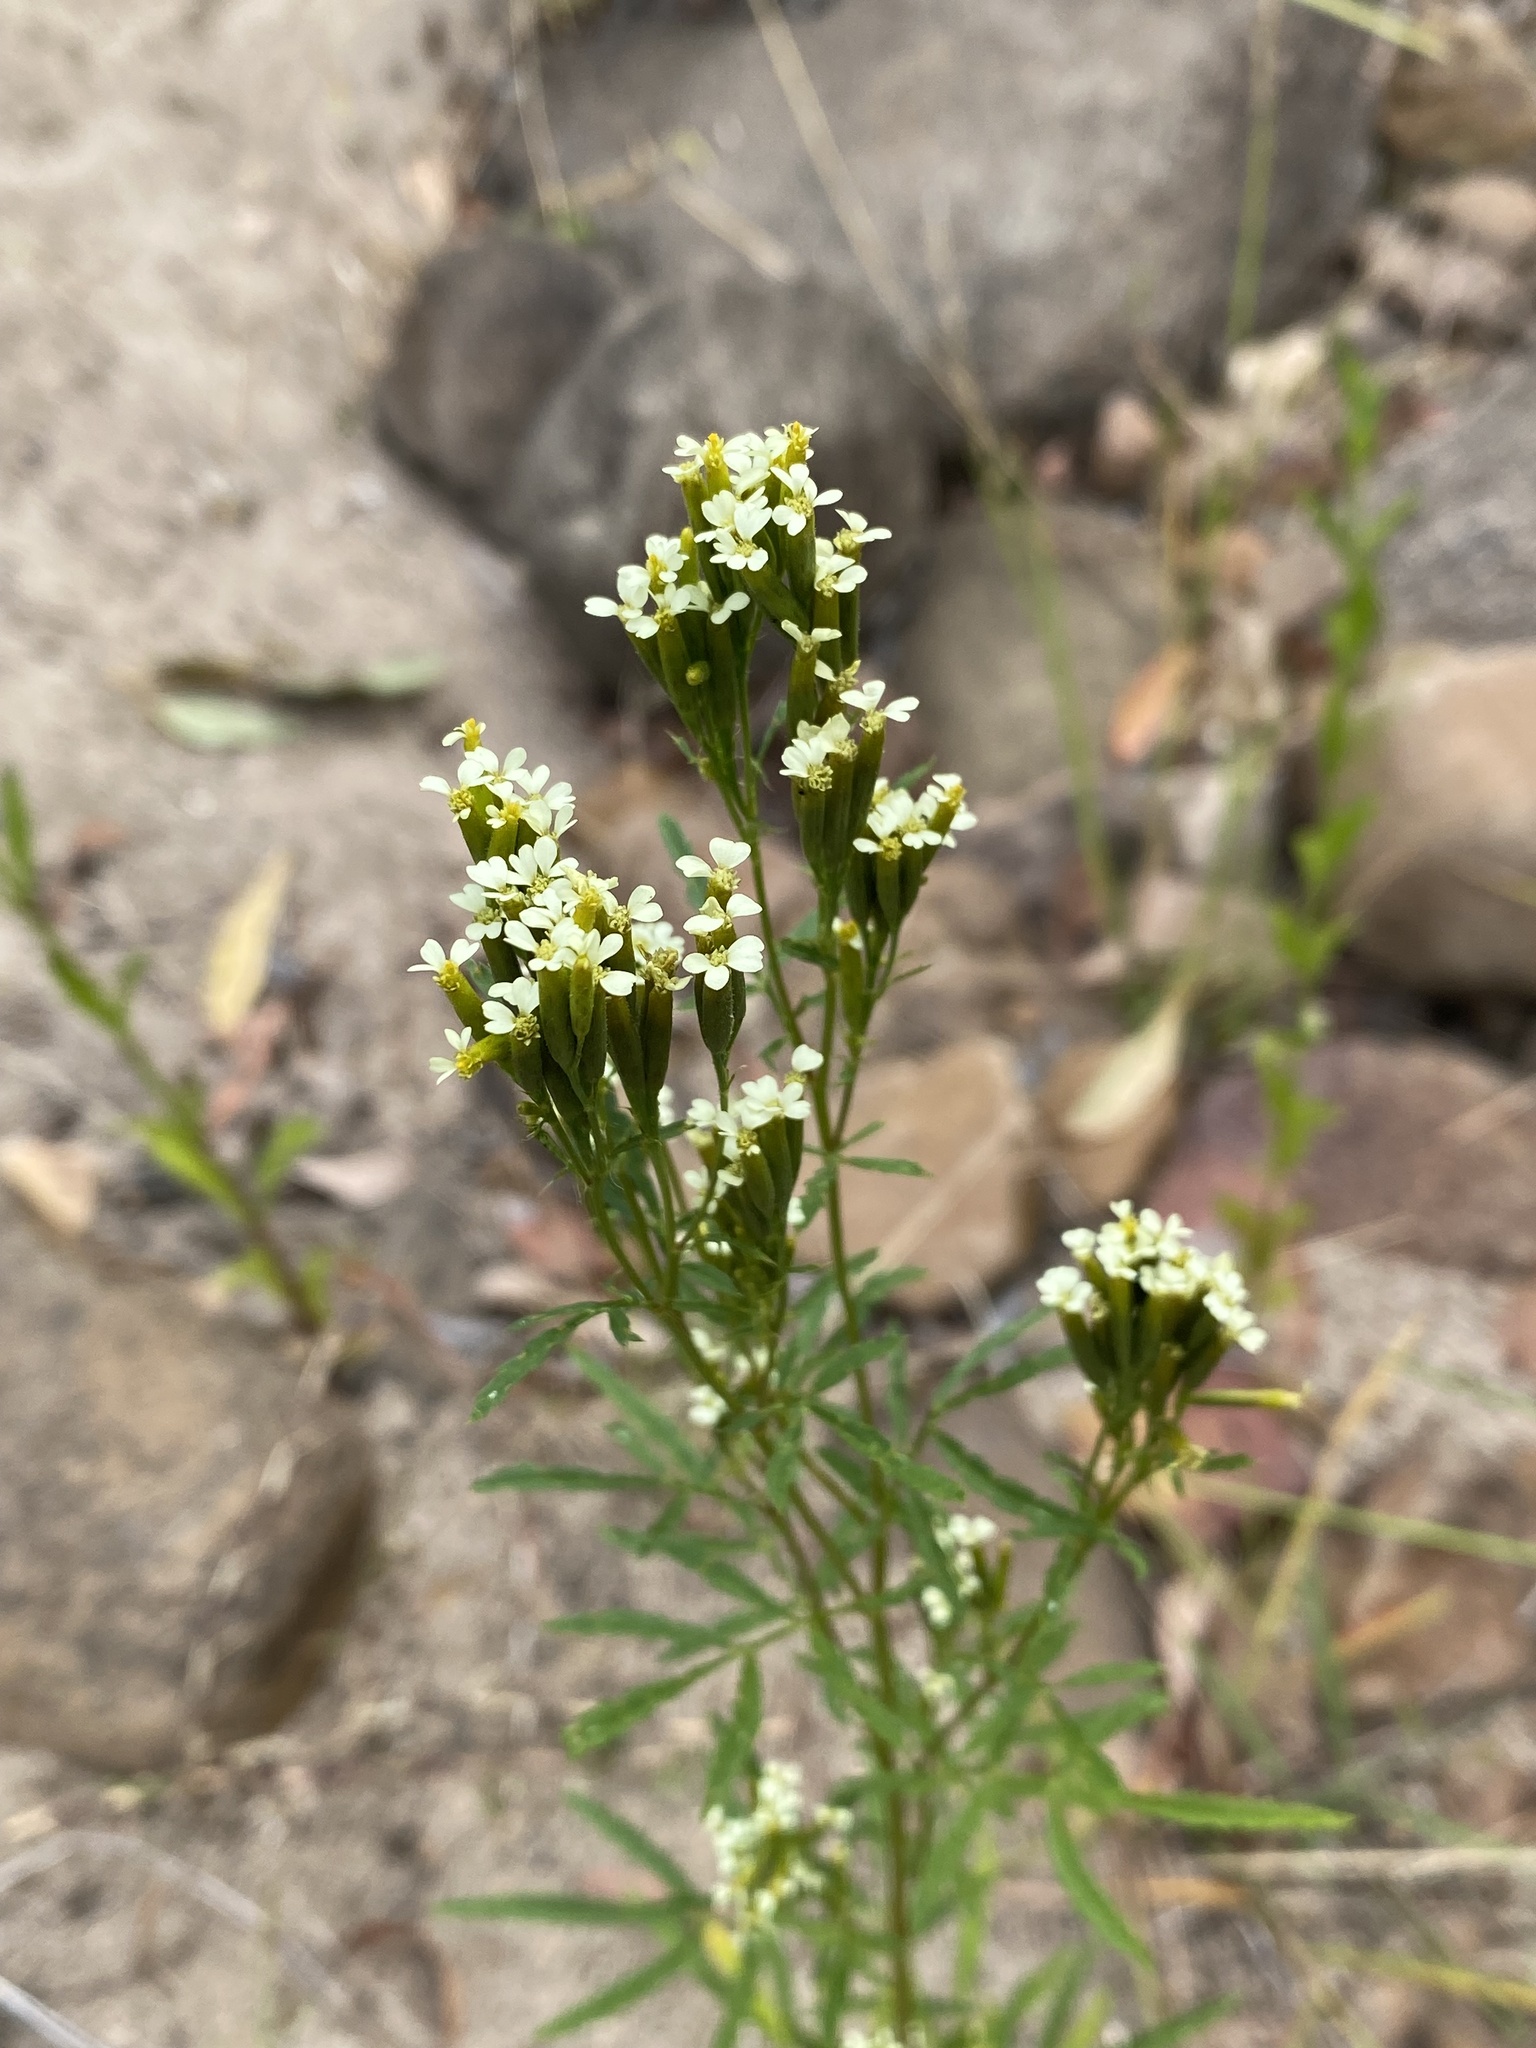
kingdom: Plantae
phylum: Tracheophyta
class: Magnoliopsida
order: Asterales
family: Asteraceae
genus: Tagetes
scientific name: Tagetes minuta
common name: Muster john henry
